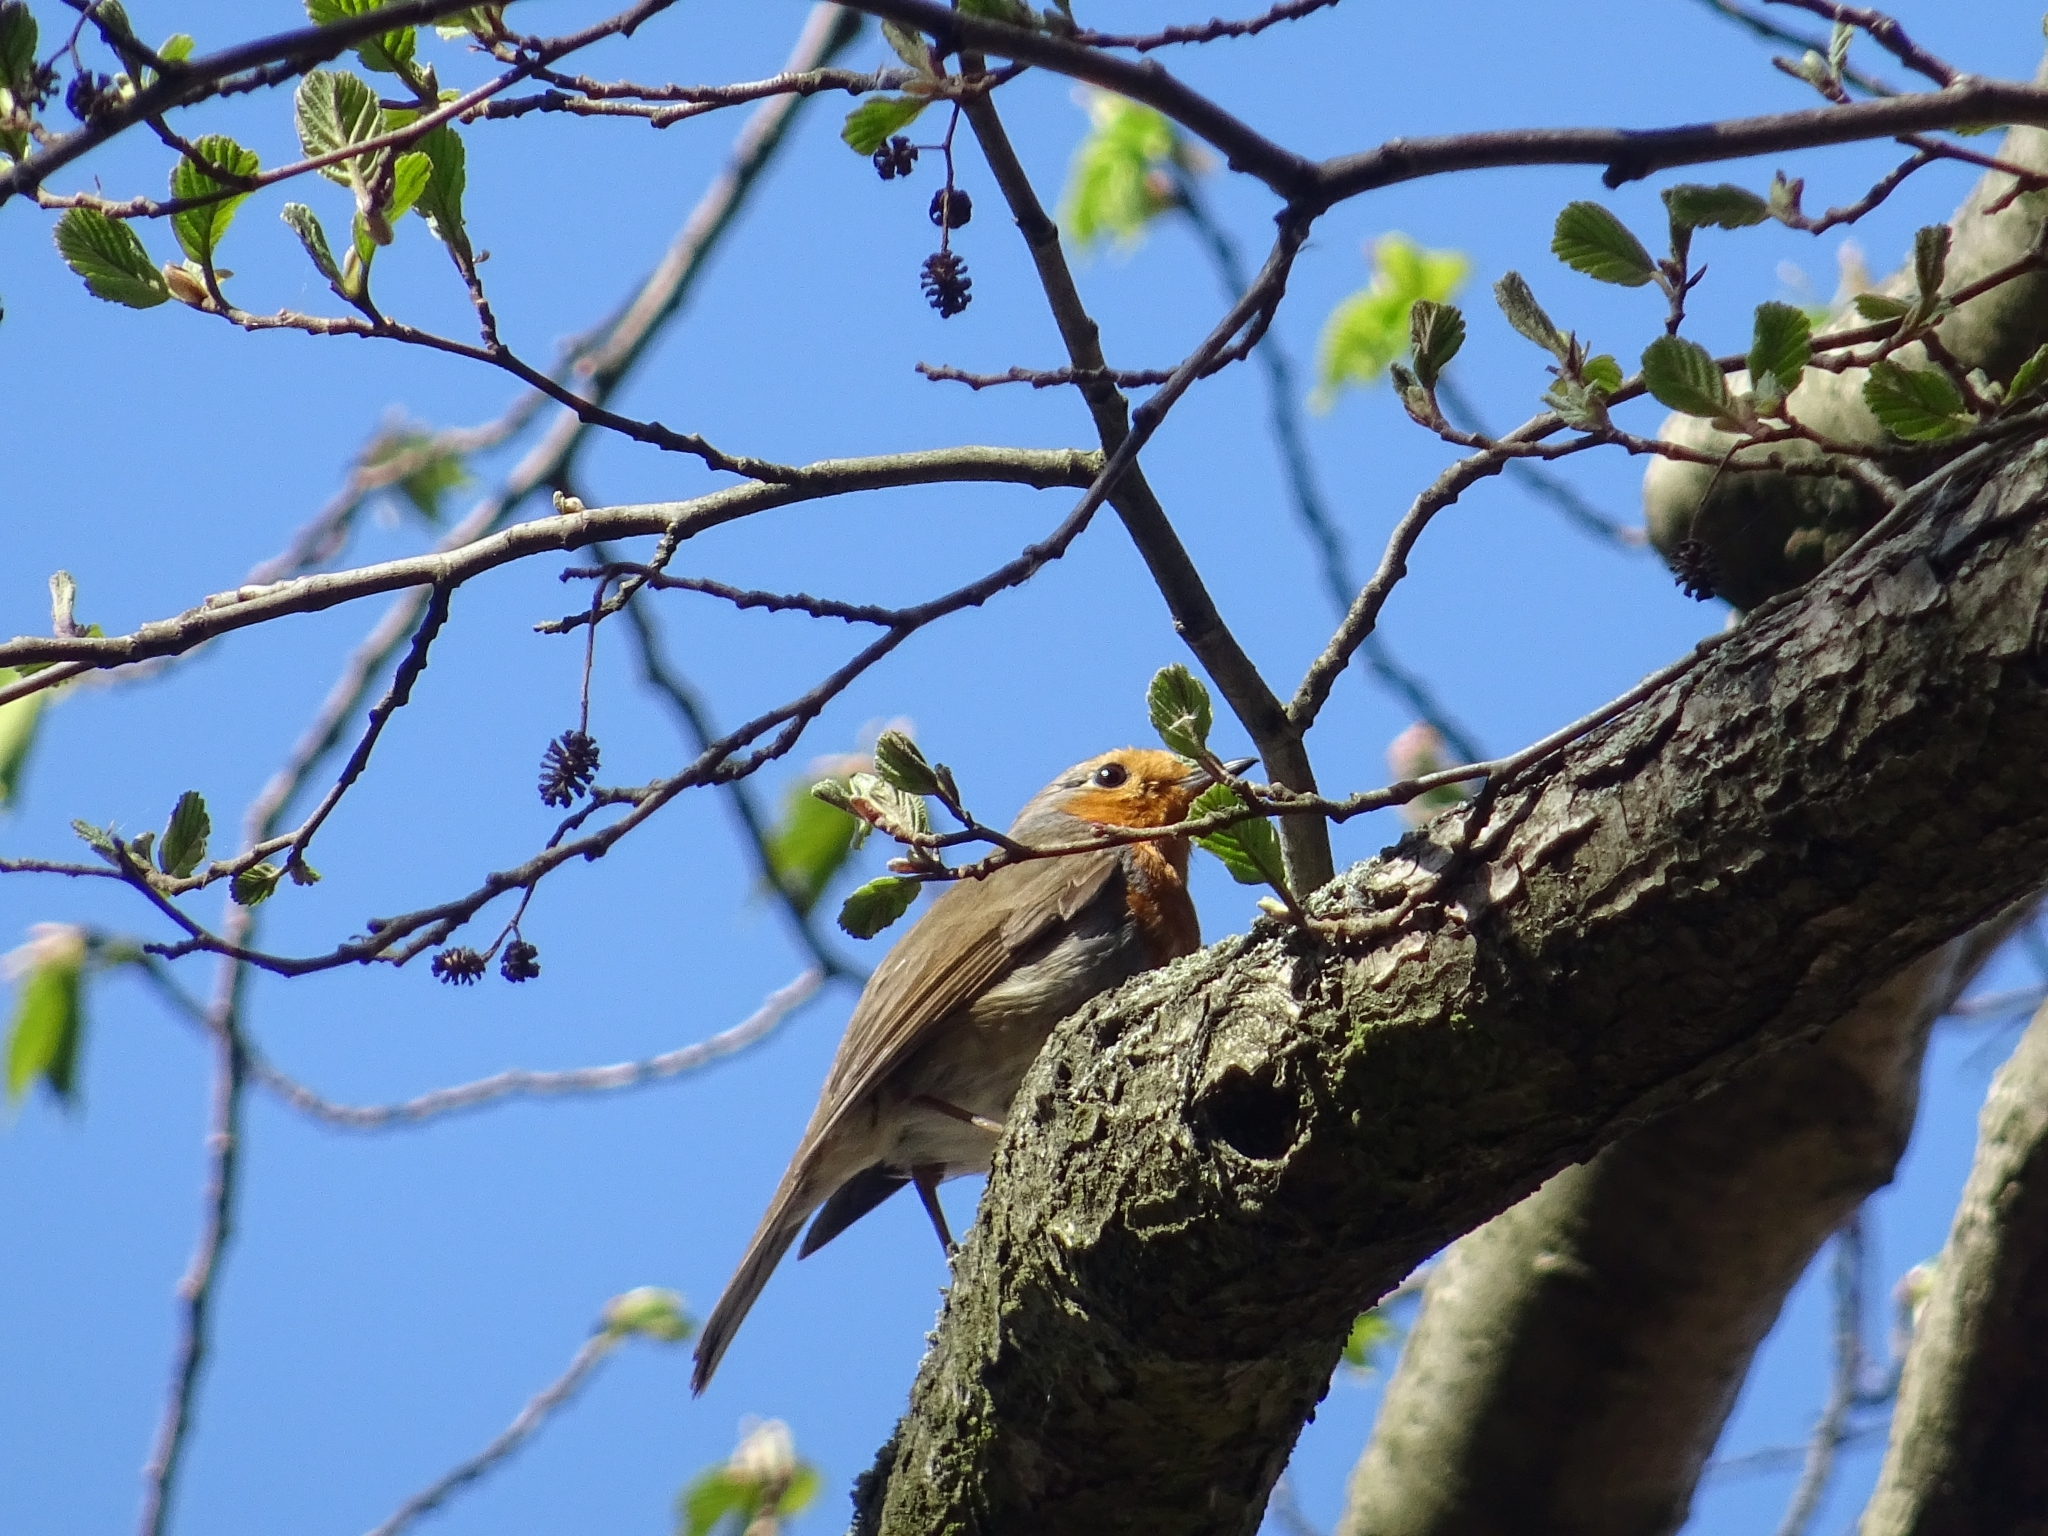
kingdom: Animalia
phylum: Chordata
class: Aves
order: Passeriformes
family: Muscicapidae
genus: Erithacus
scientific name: Erithacus rubecula
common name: European robin
